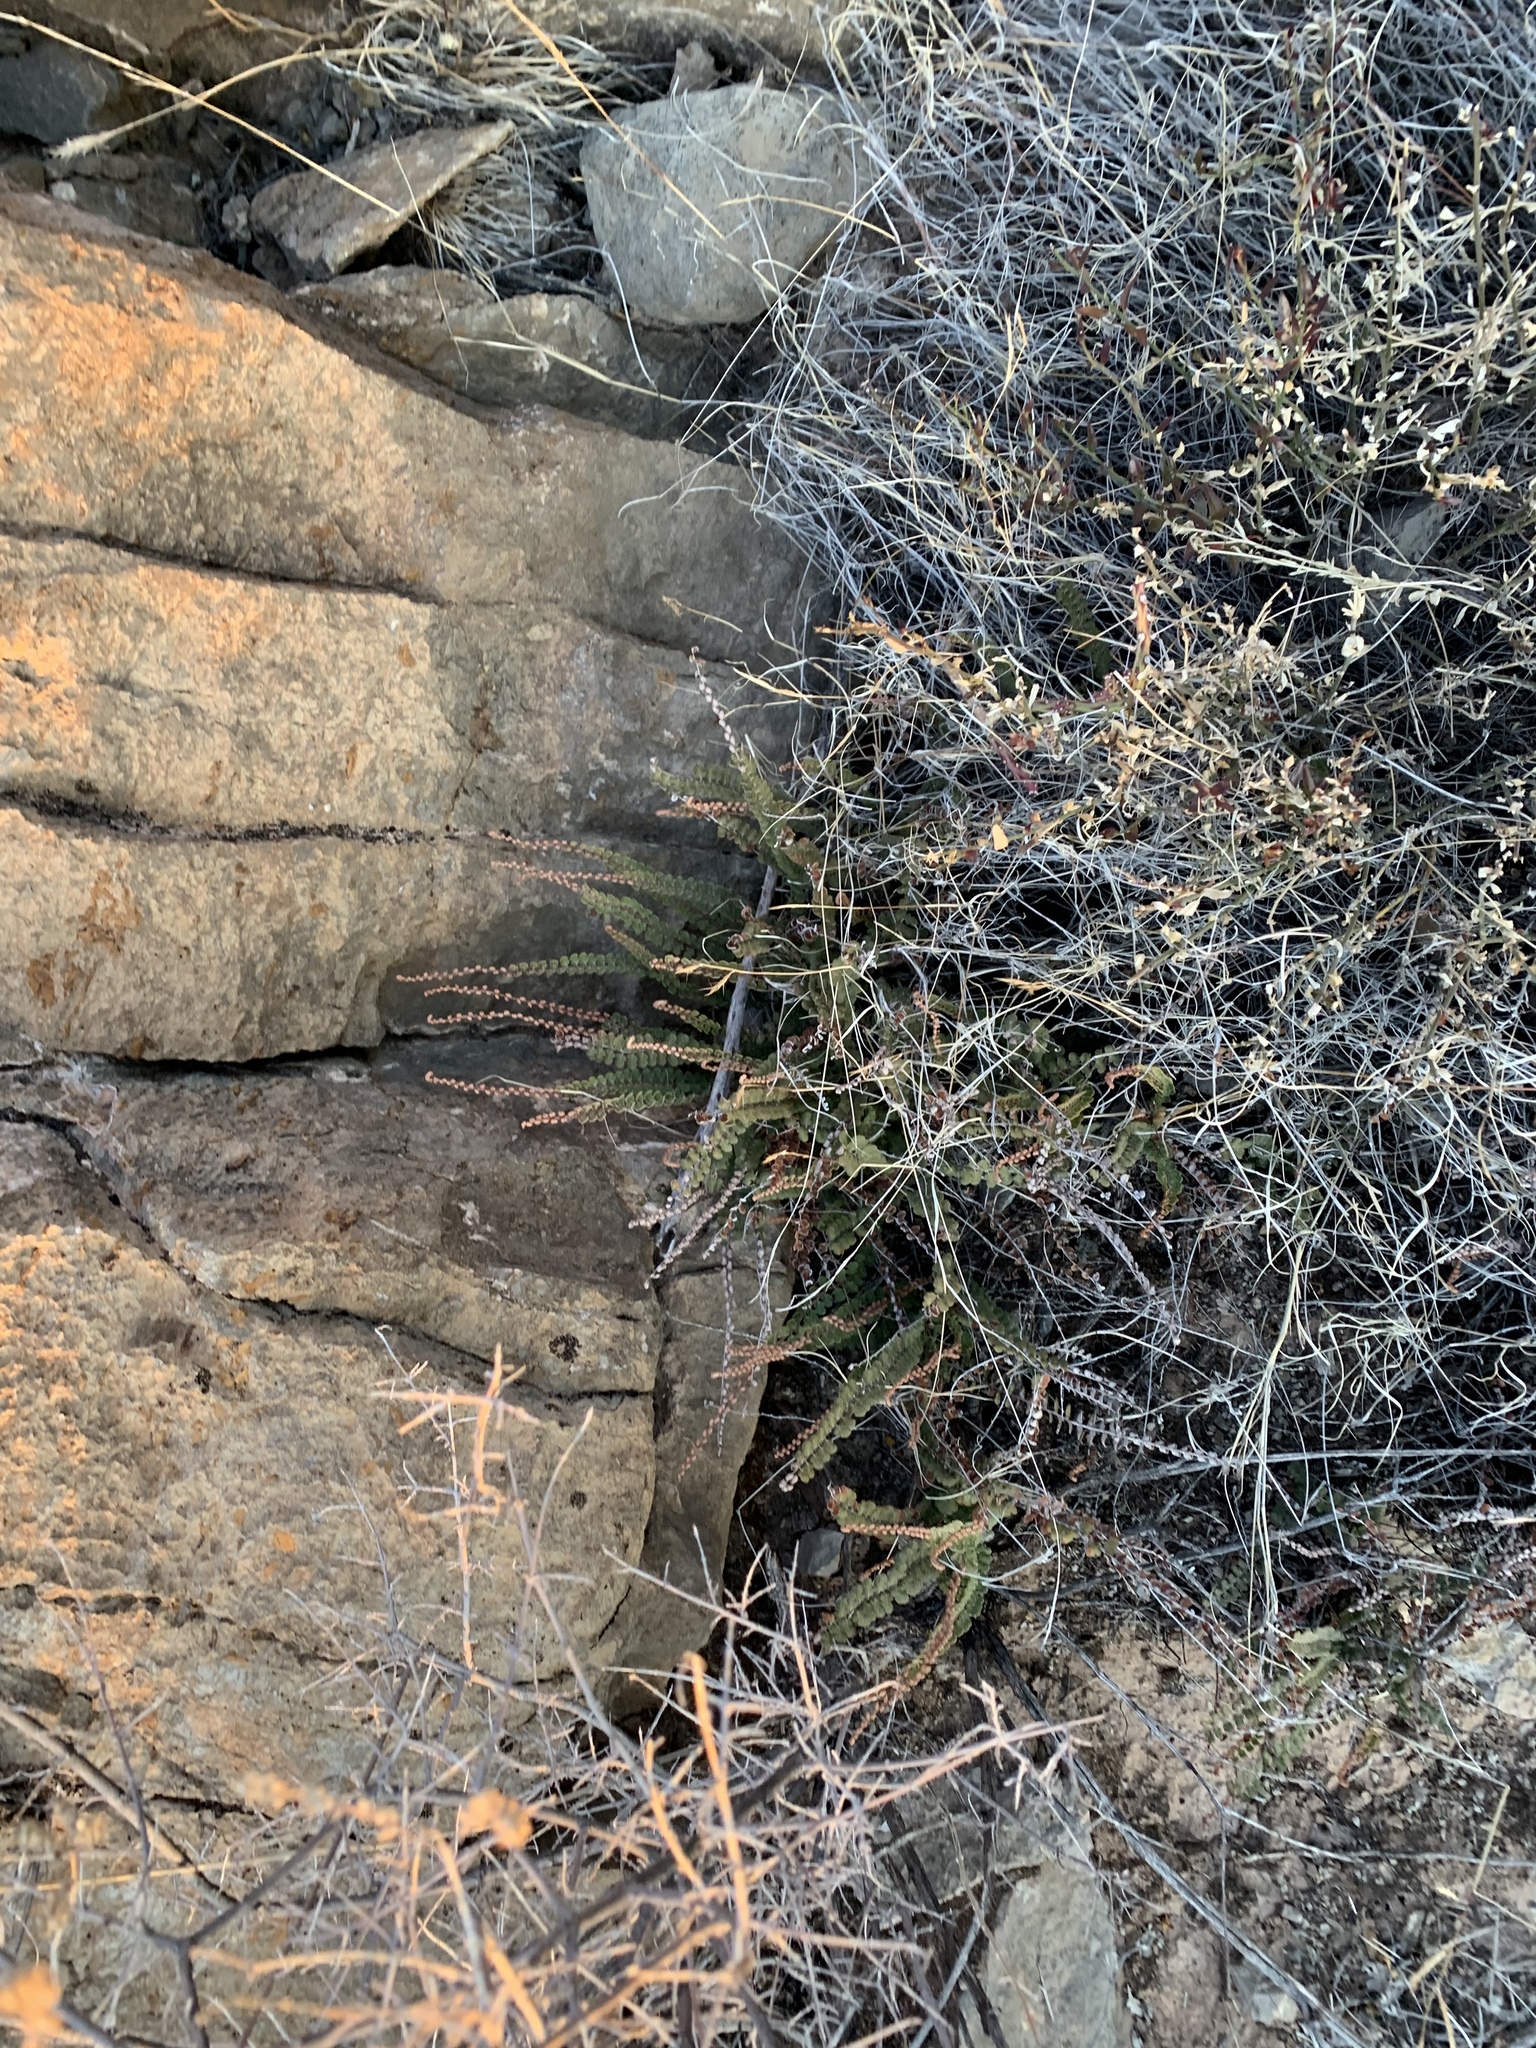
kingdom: Plantae
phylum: Tracheophyta
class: Polypodiopsida
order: Polypodiales
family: Pteridaceae
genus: Astrolepis
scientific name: Astrolepis cochisensis
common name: Scaly cloak fern
